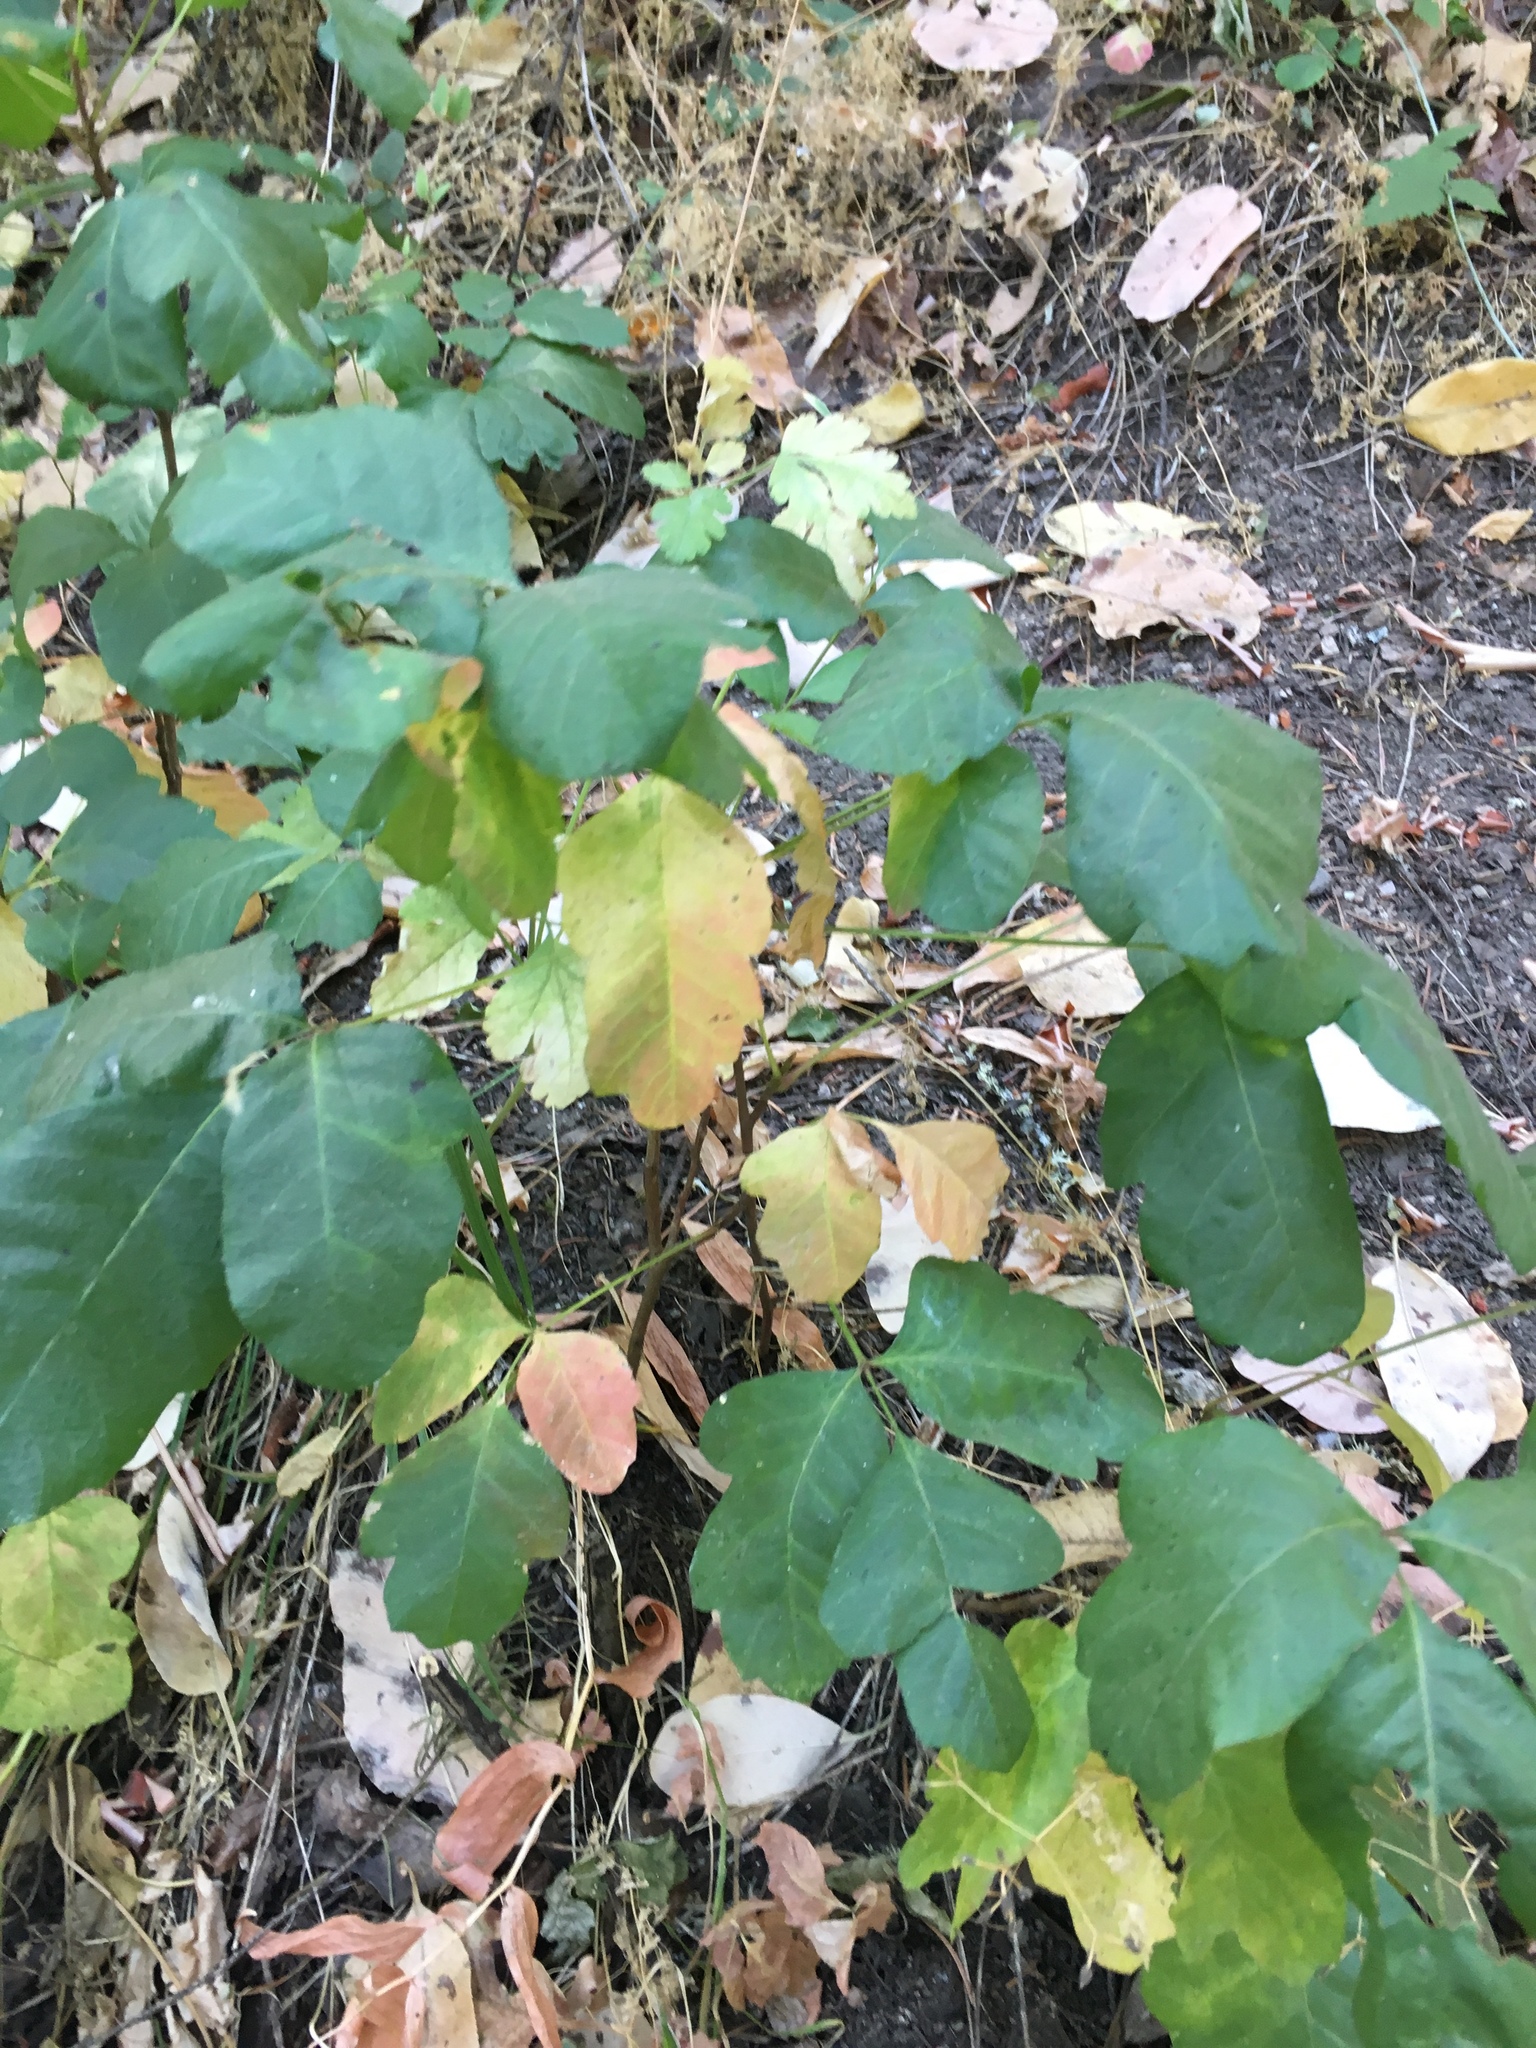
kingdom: Plantae
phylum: Tracheophyta
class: Magnoliopsida
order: Sapindales
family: Anacardiaceae
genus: Toxicodendron
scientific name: Toxicodendron diversilobum
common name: Pacific poison-oak
